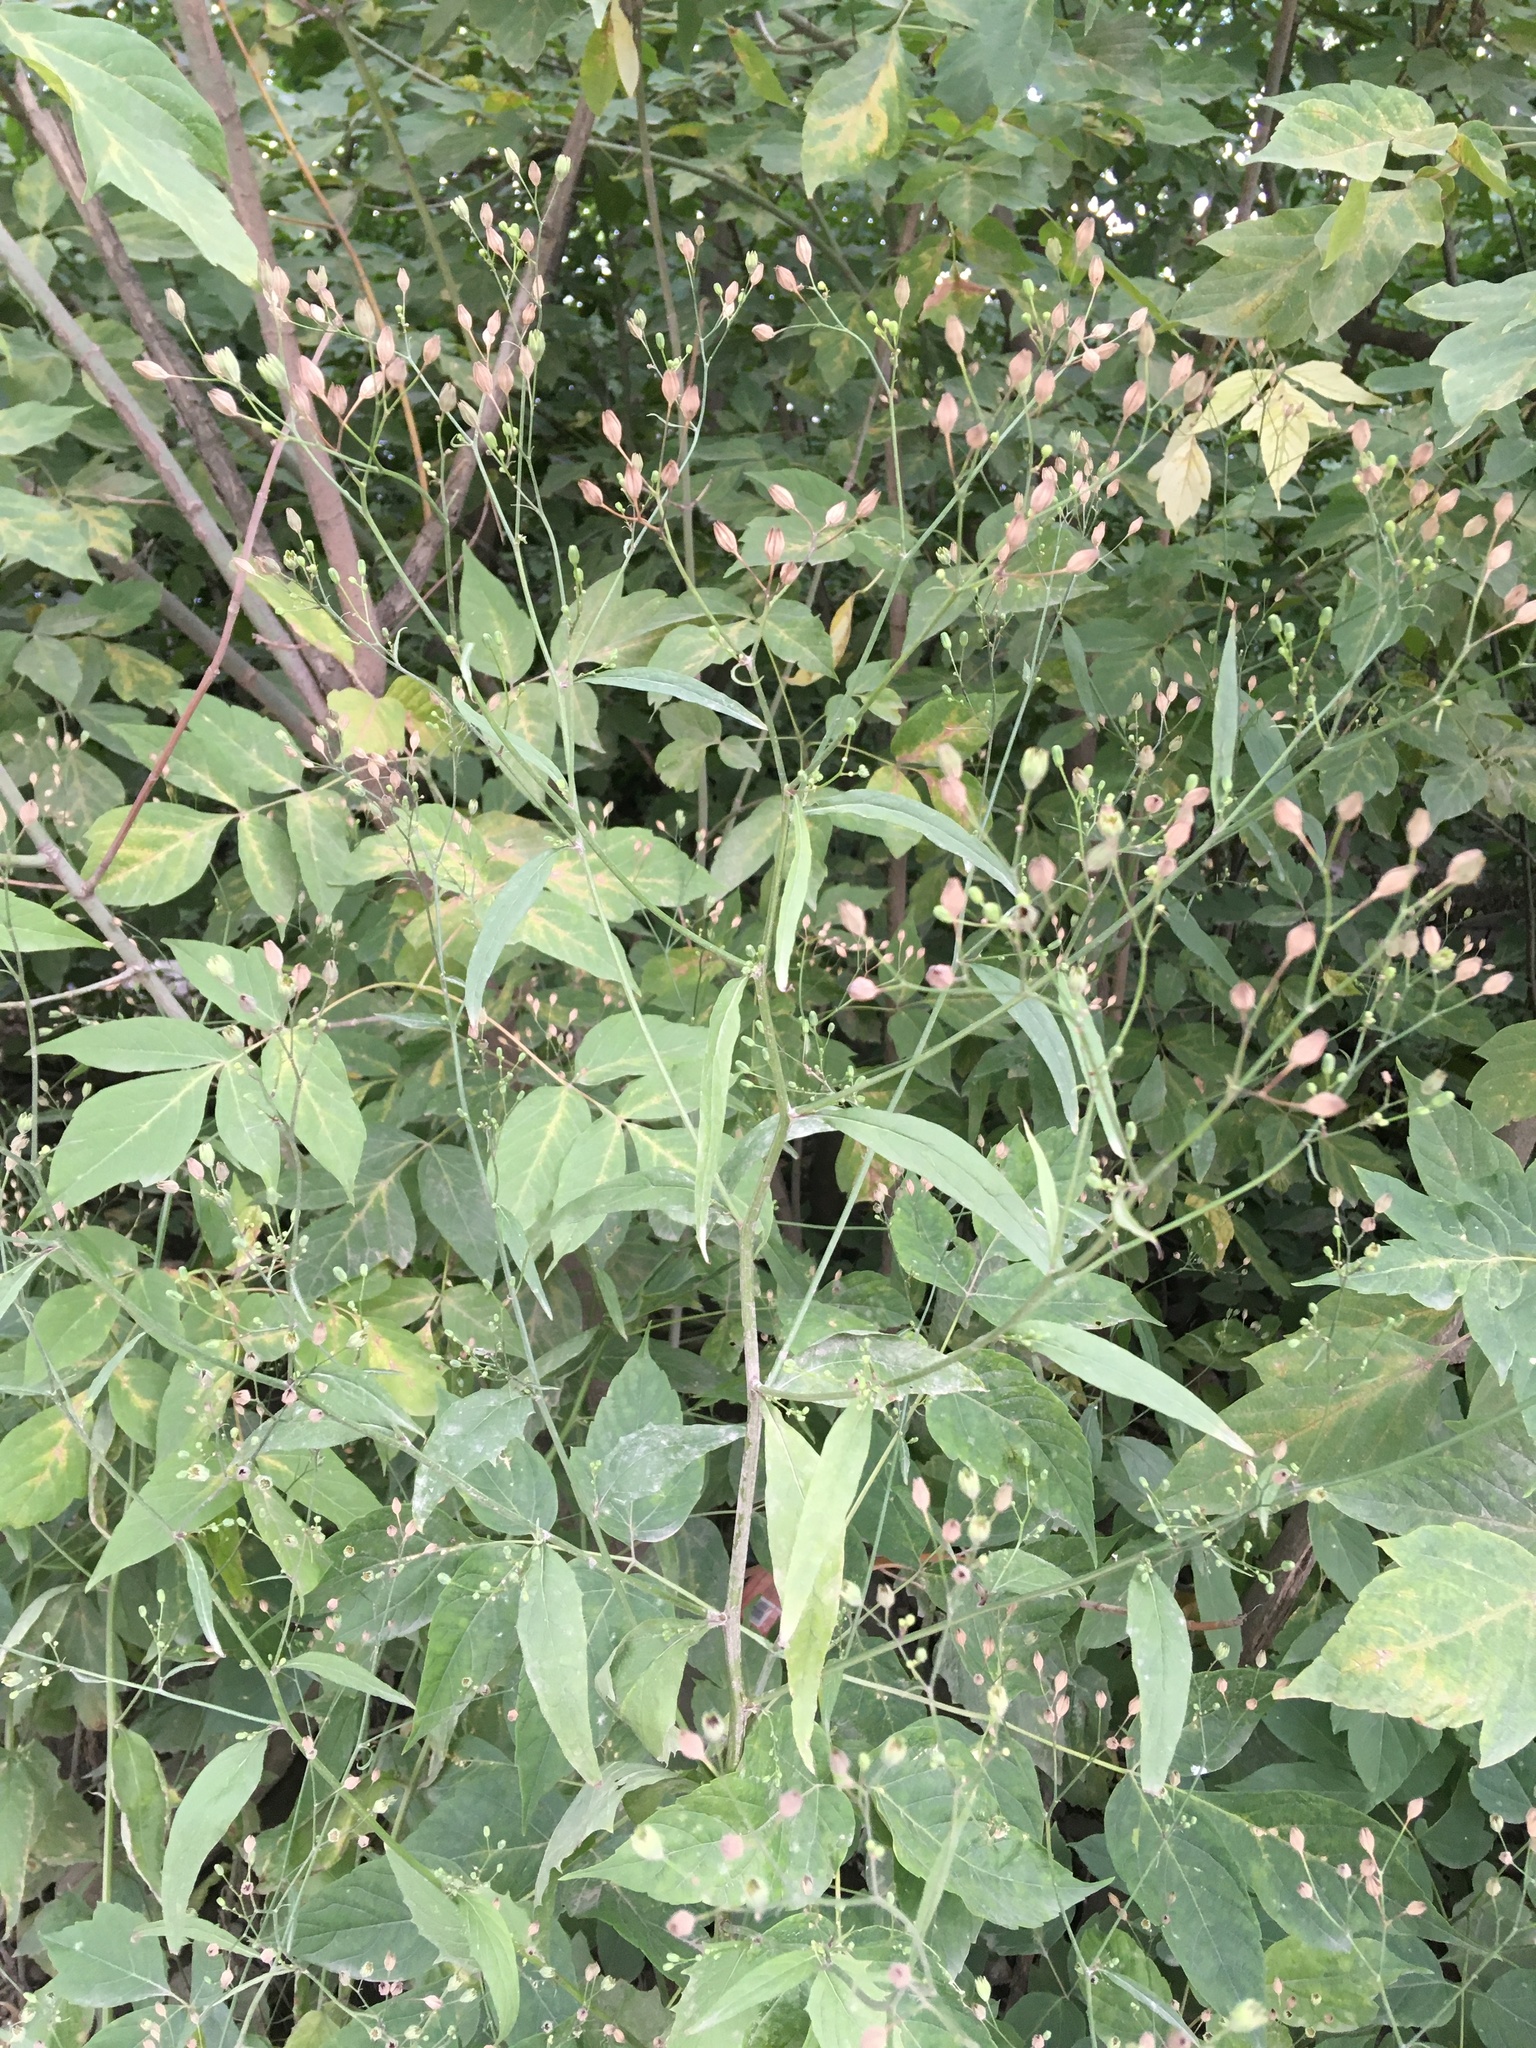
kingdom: Plantae
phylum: Tracheophyta
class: Magnoliopsida
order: Asterales
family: Asteraceae
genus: Lapsana
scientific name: Lapsana communis
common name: Nipplewort
